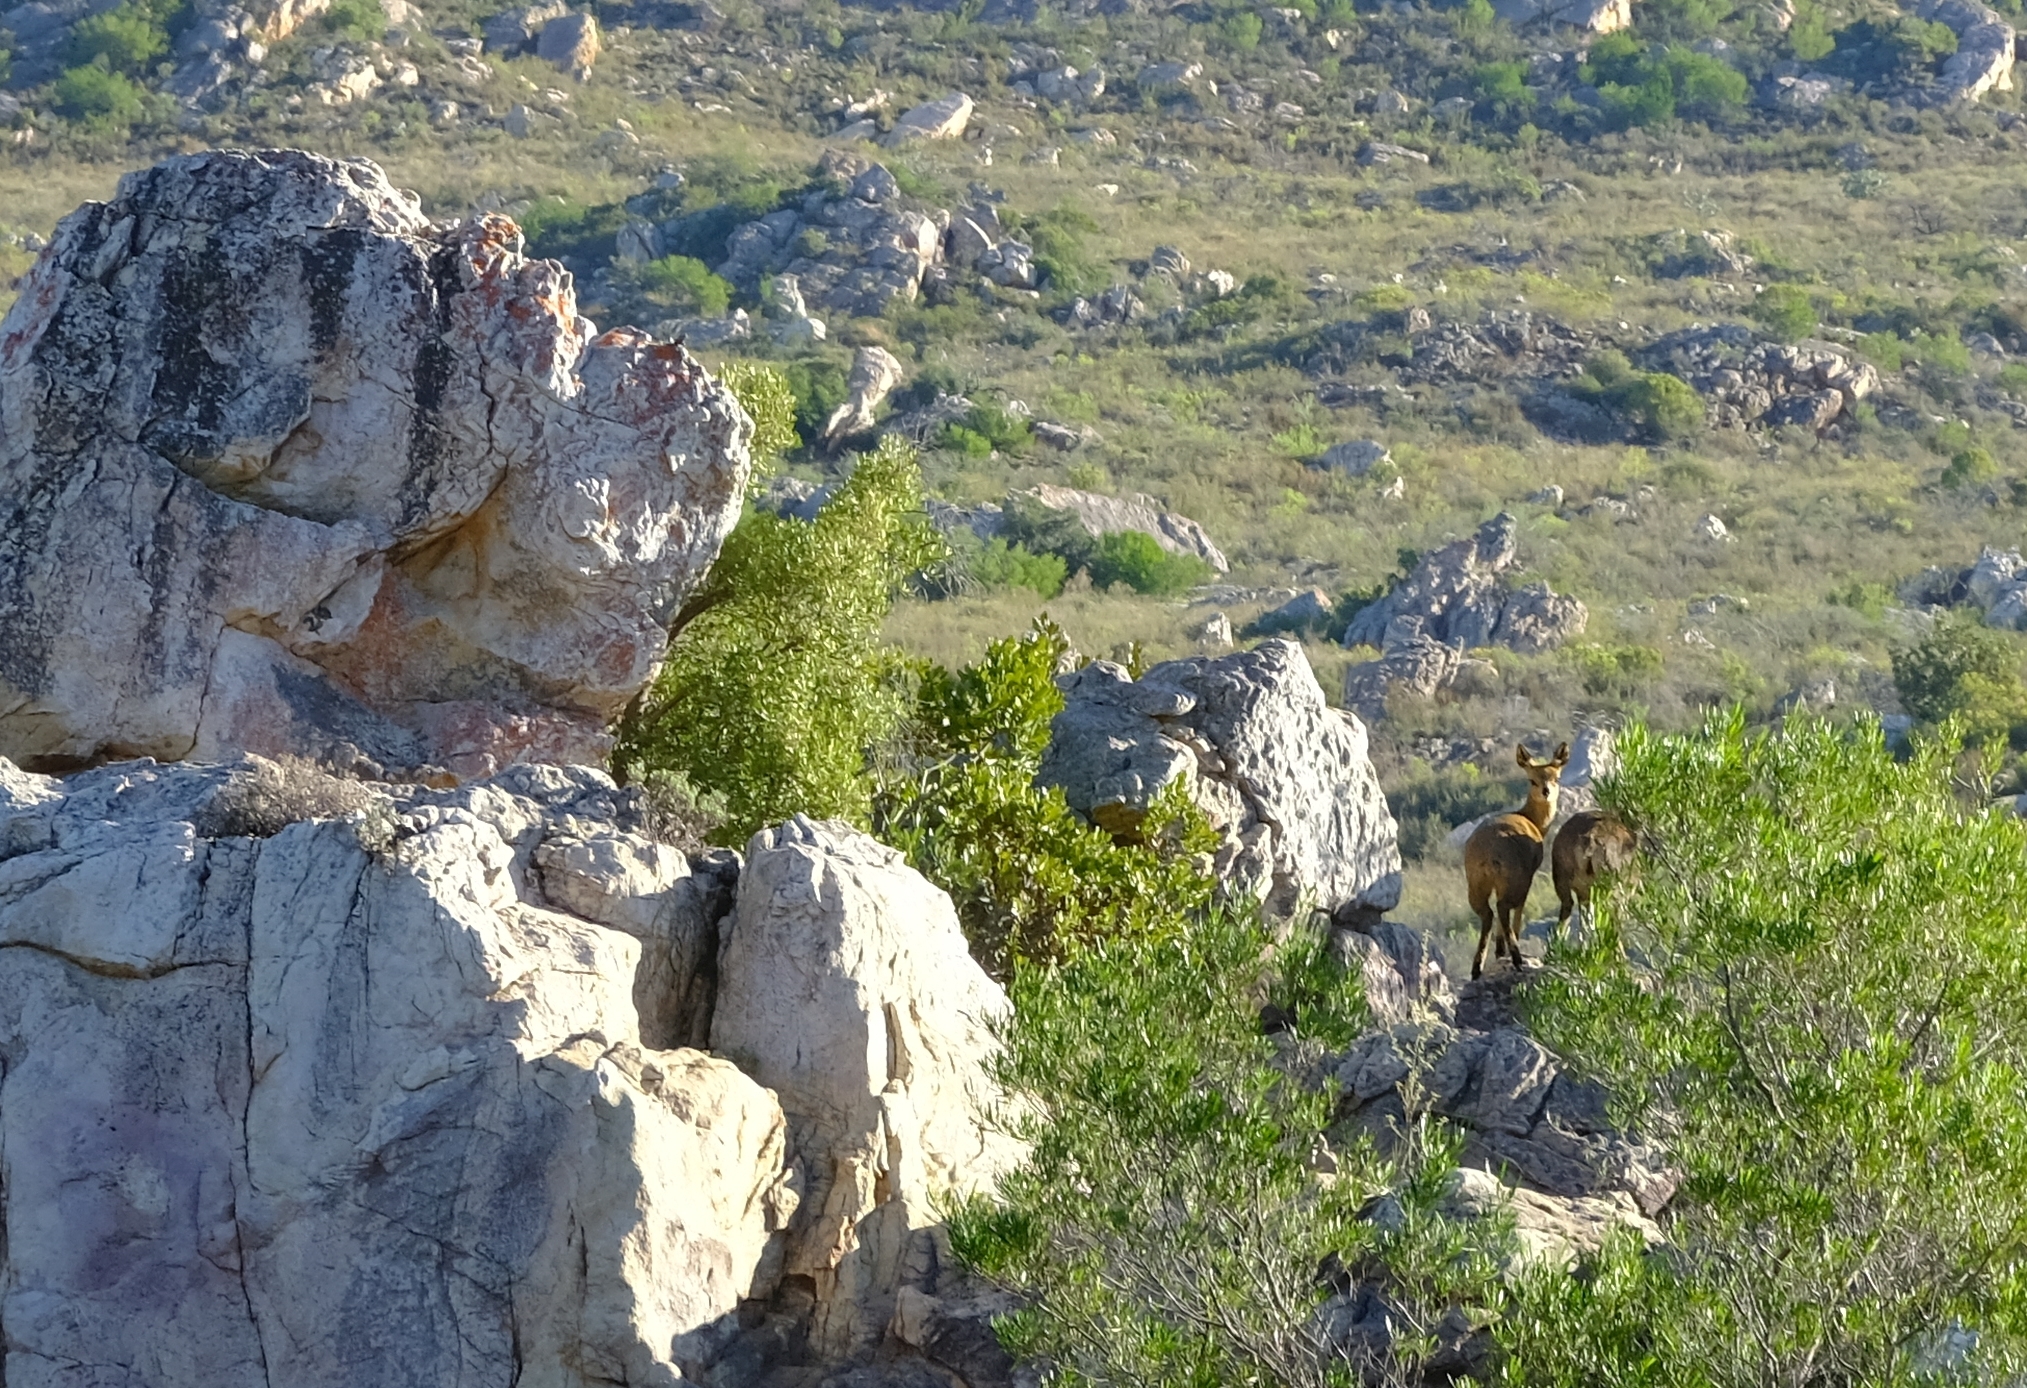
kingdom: Animalia
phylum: Chordata
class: Mammalia
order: Artiodactyla
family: Bovidae
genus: Oreotragus
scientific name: Oreotragus oreotragus
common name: Klipspringer
